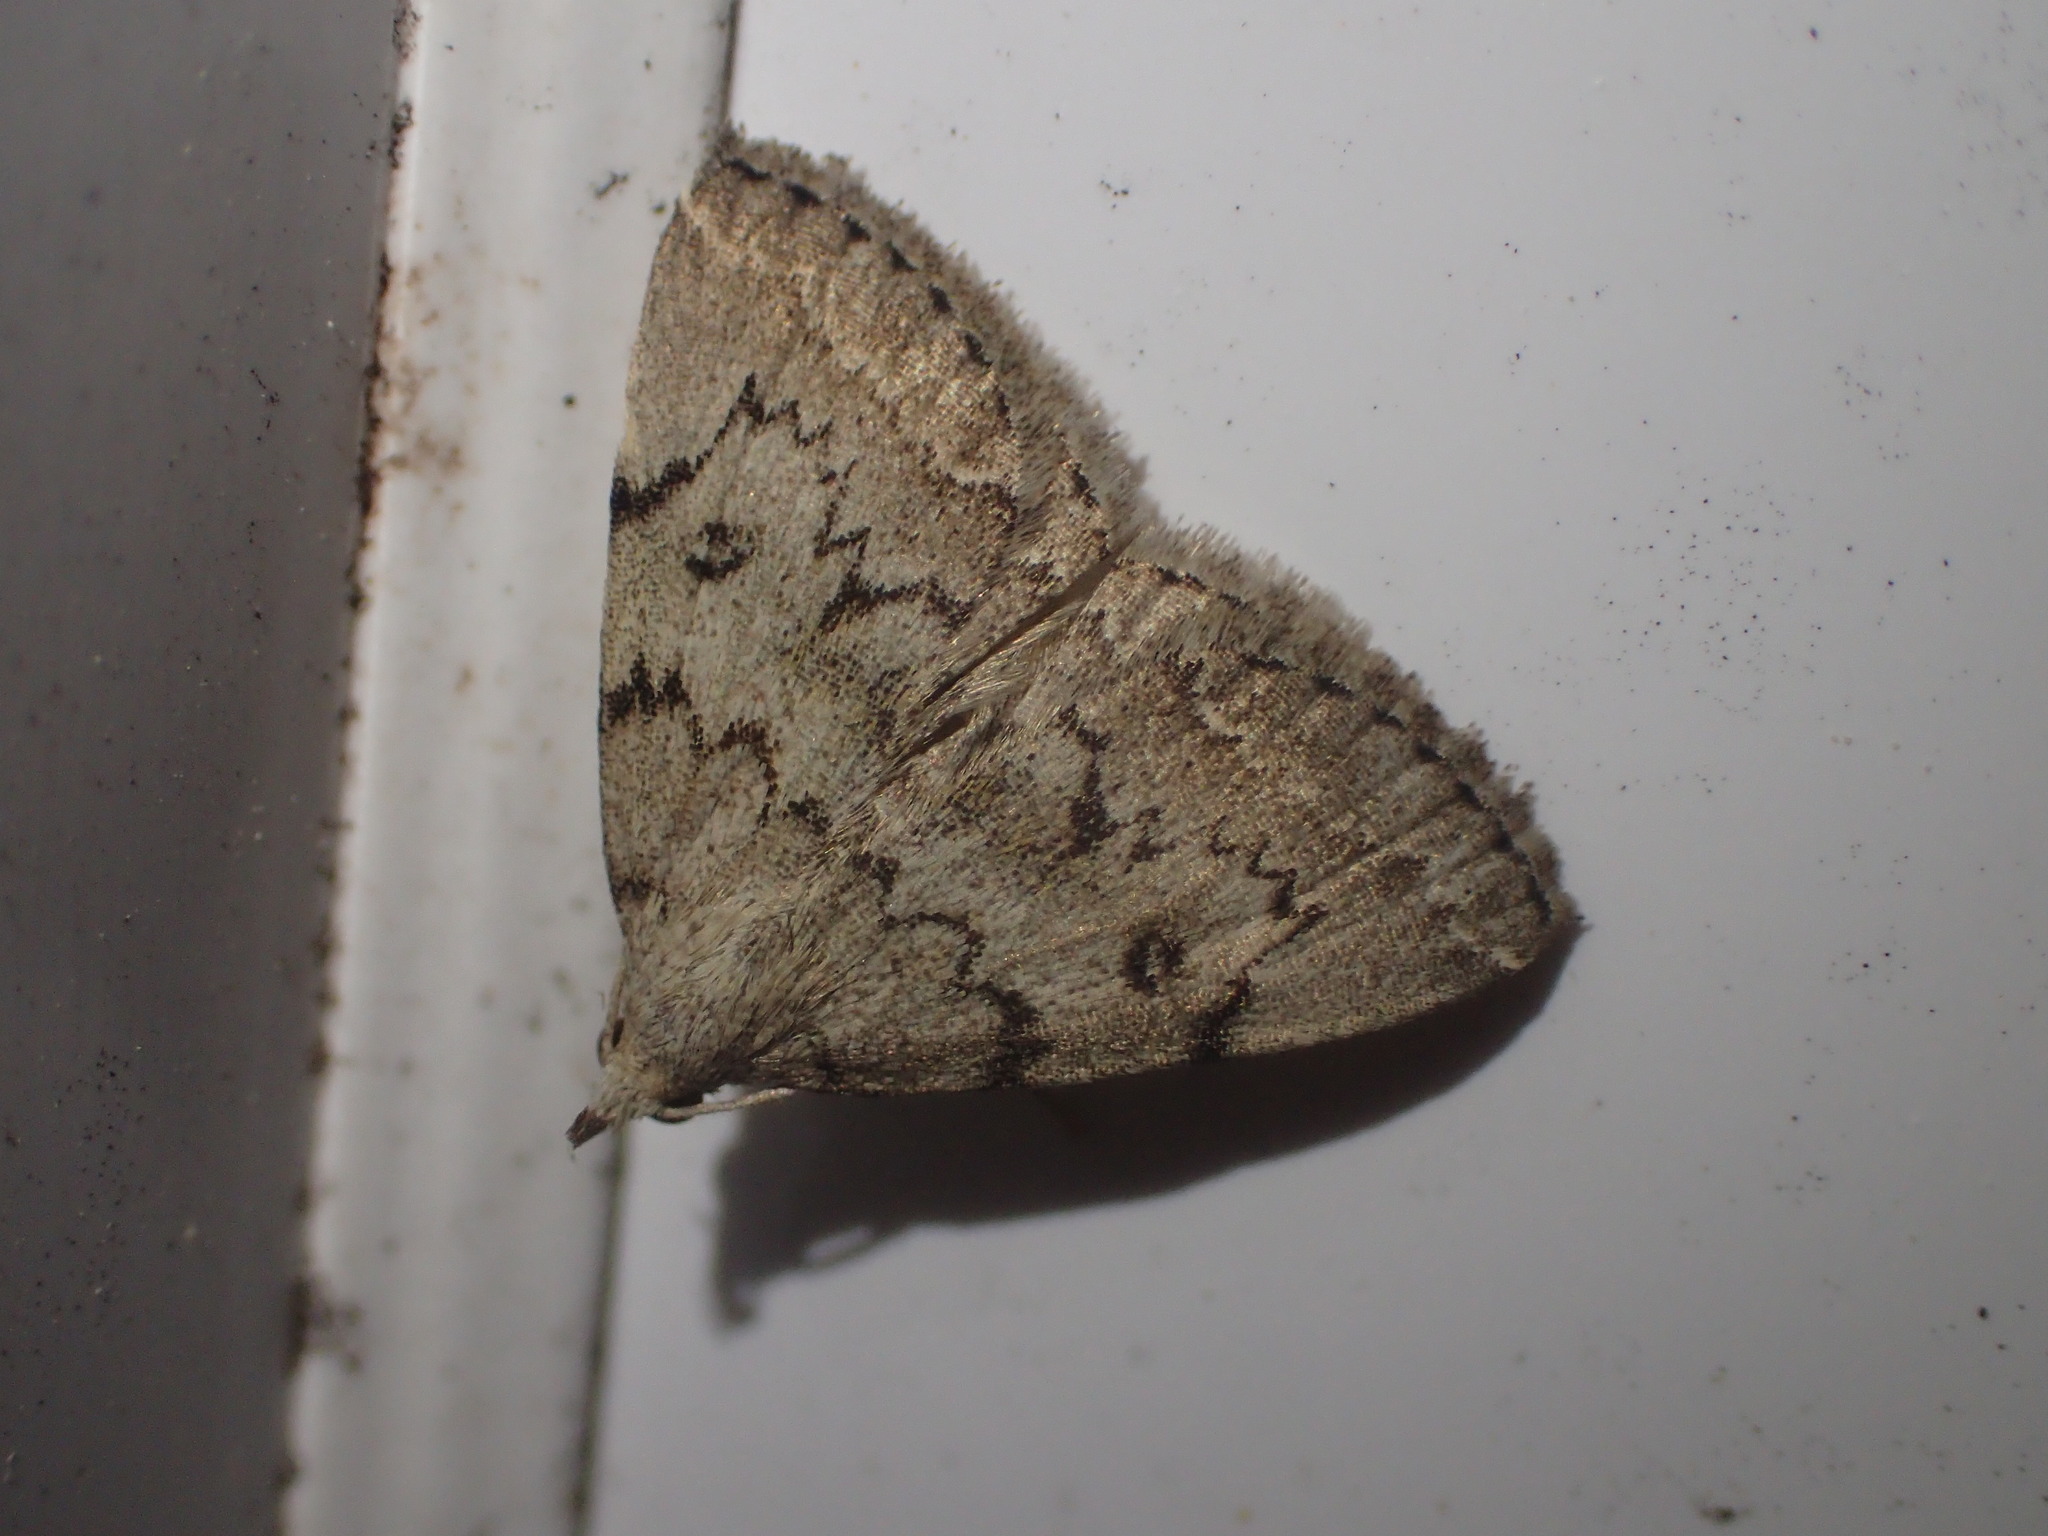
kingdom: Animalia
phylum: Arthropoda
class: Insecta
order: Lepidoptera
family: Erebidae
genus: Zanclognatha
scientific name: Zanclognatha theralis
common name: Flagged fan-foot
